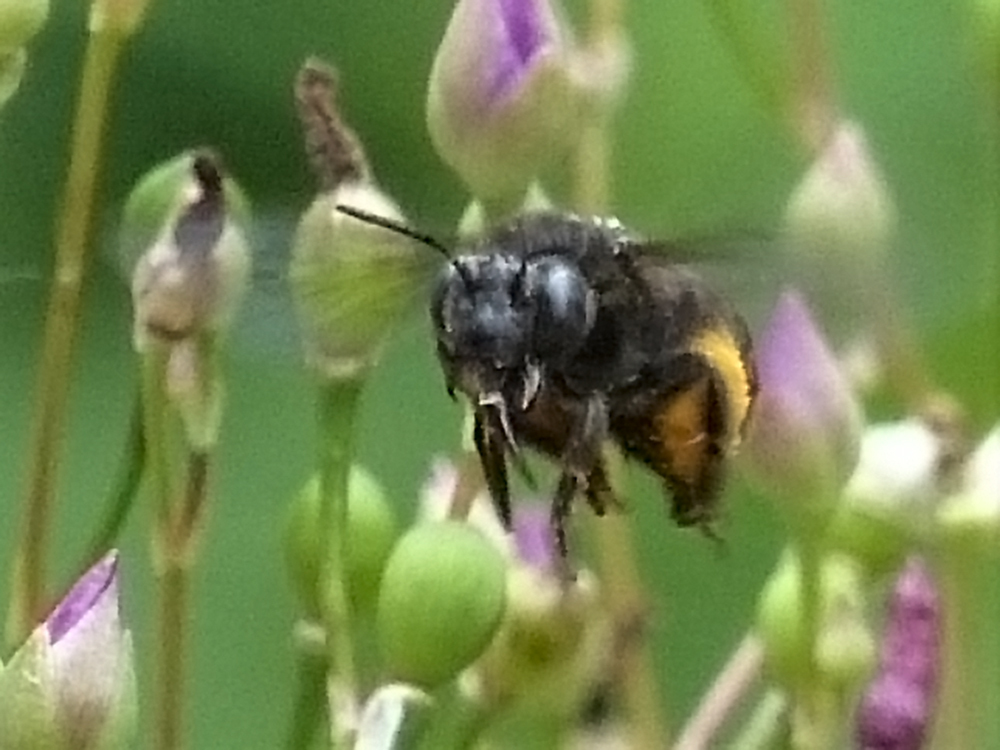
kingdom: Animalia
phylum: Arthropoda
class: Insecta
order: Hymenoptera
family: Apidae
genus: Melissodes
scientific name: Melissodes bimaculatus
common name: Two-spotted long-horned bee
